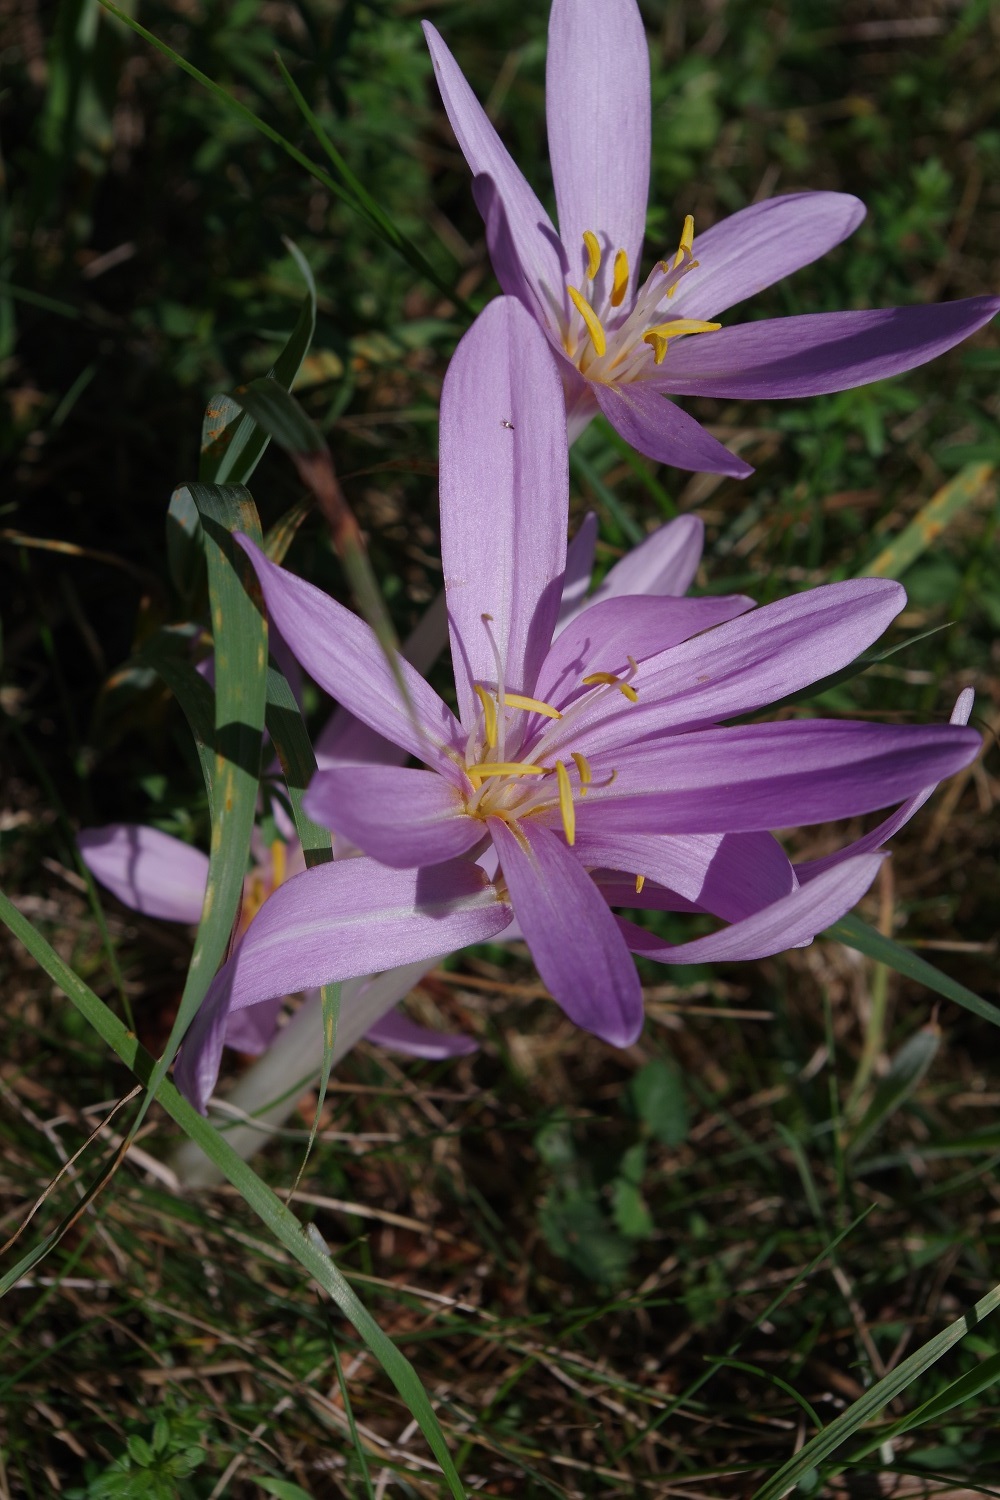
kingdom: Plantae
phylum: Tracheophyta
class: Liliopsida
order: Liliales
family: Colchicaceae
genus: Colchicum
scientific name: Colchicum autumnale
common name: Autumn crocus
